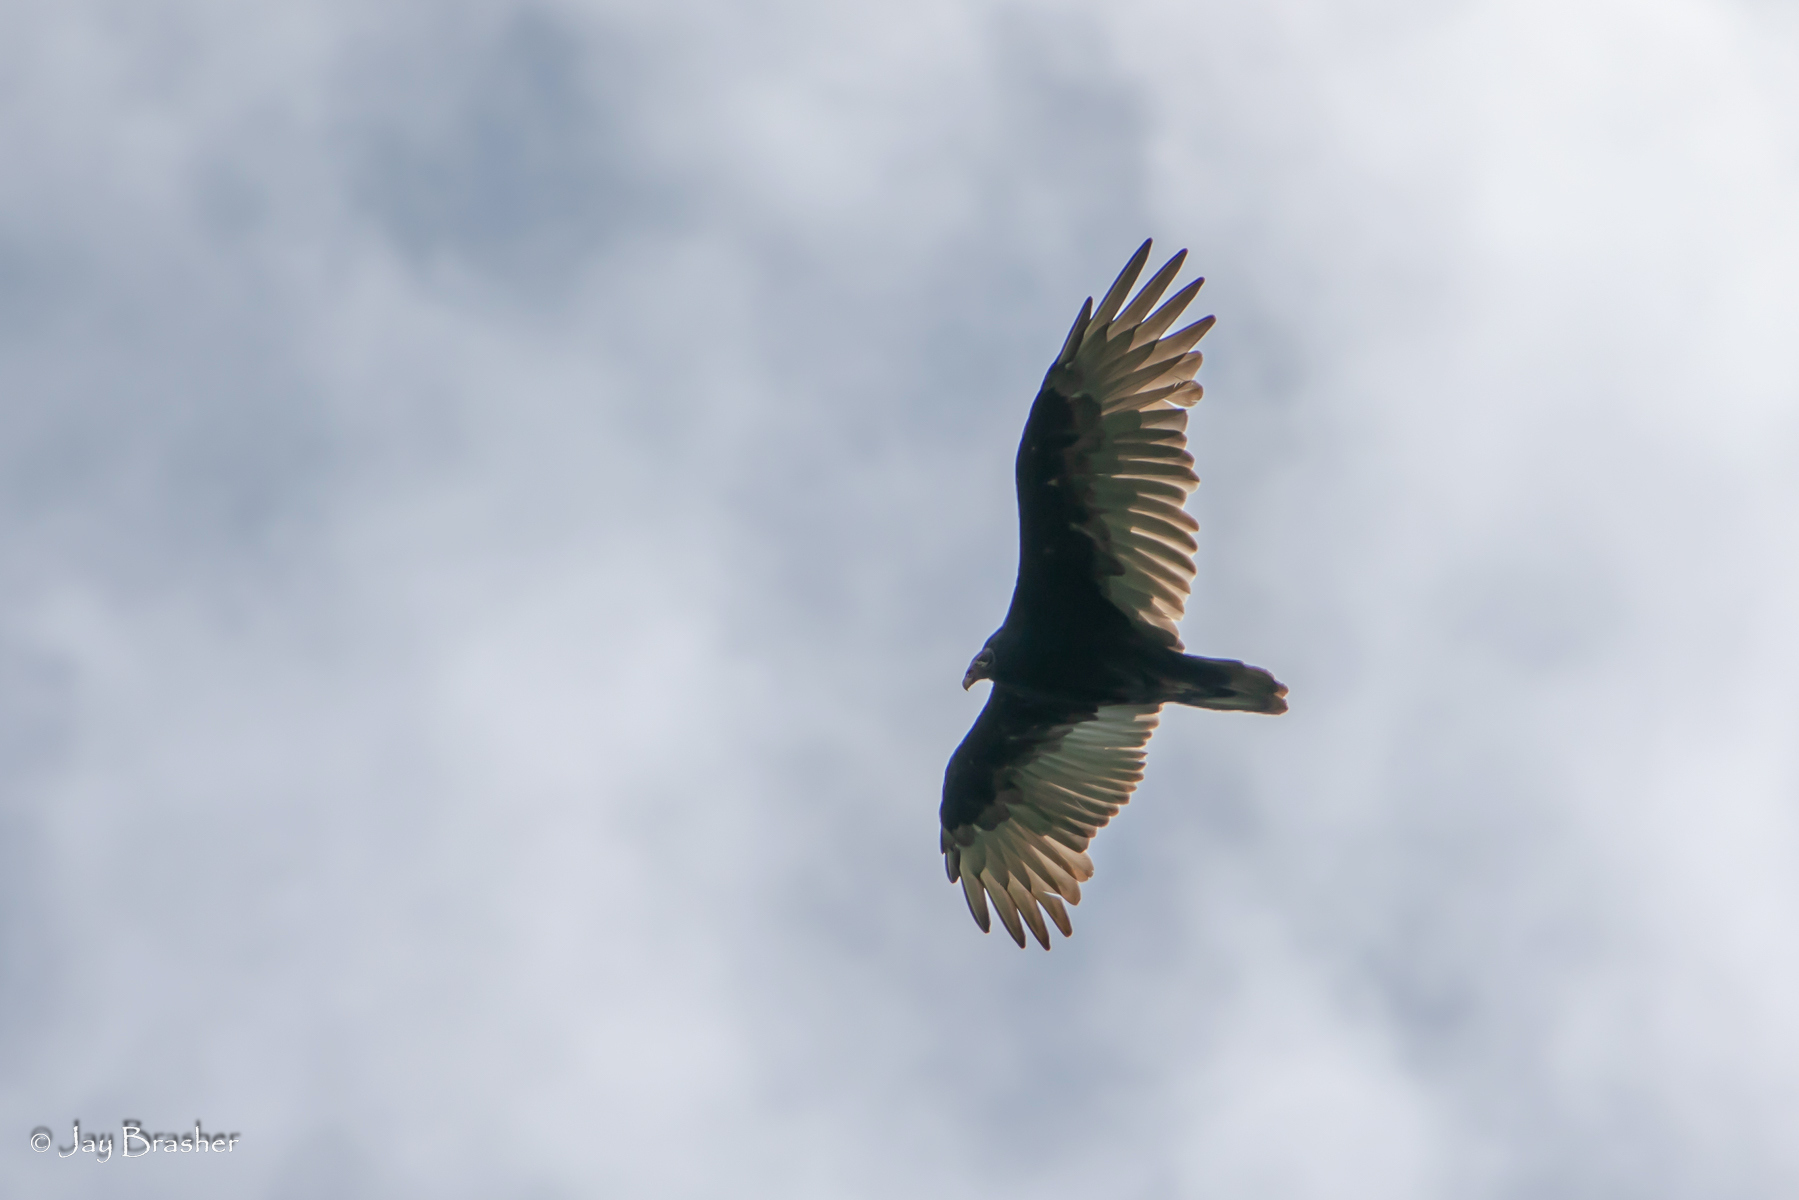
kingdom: Animalia
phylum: Chordata
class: Aves
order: Accipitriformes
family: Cathartidae
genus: Cathartes
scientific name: Cathartes aura
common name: Turkey vulture
